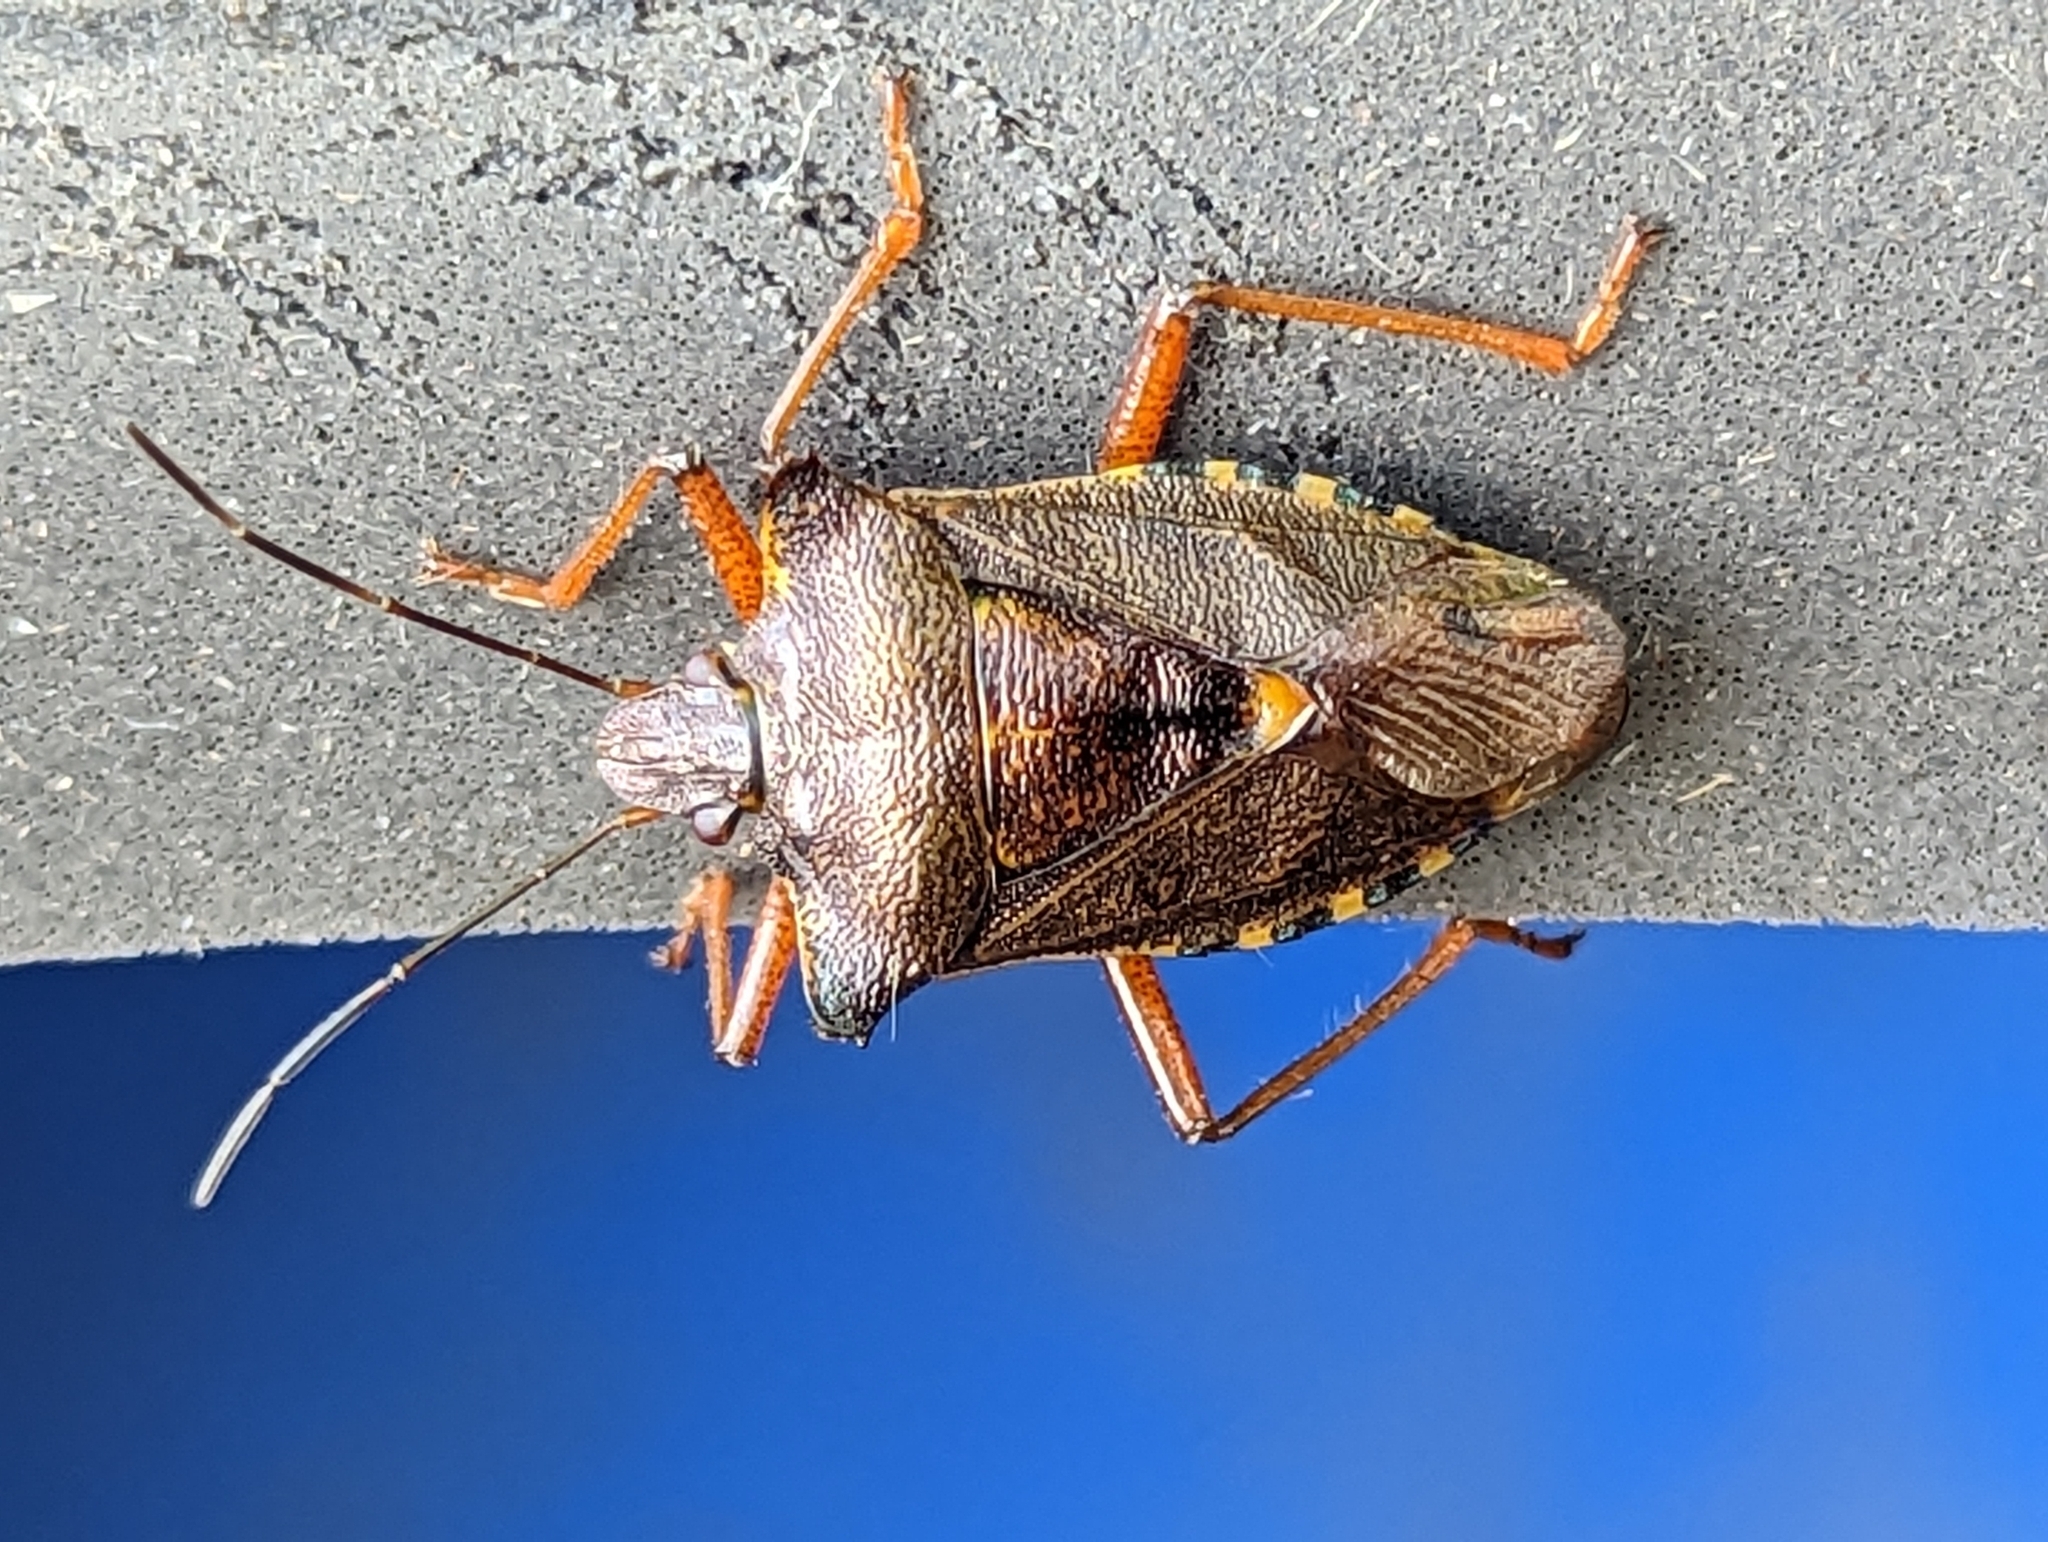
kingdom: Animalia
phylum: Arthropoda
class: Insecta
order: Hemiptera
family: Pentatomidae
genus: Pentatoma
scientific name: Pentatoma rufipes
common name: Forest bug
